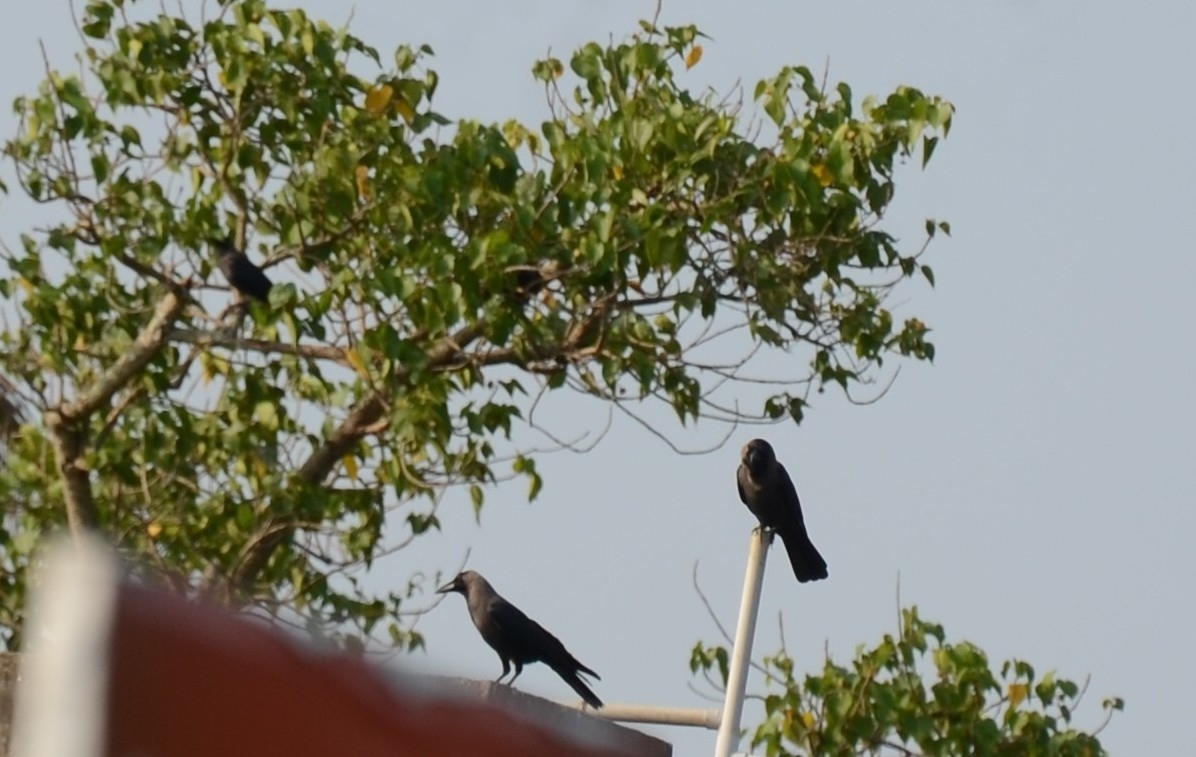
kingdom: Animalia
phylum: Chordata
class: Aves
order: Passeriformes
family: Corvidae
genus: Corvus
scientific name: Corvus splendens
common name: House crow
